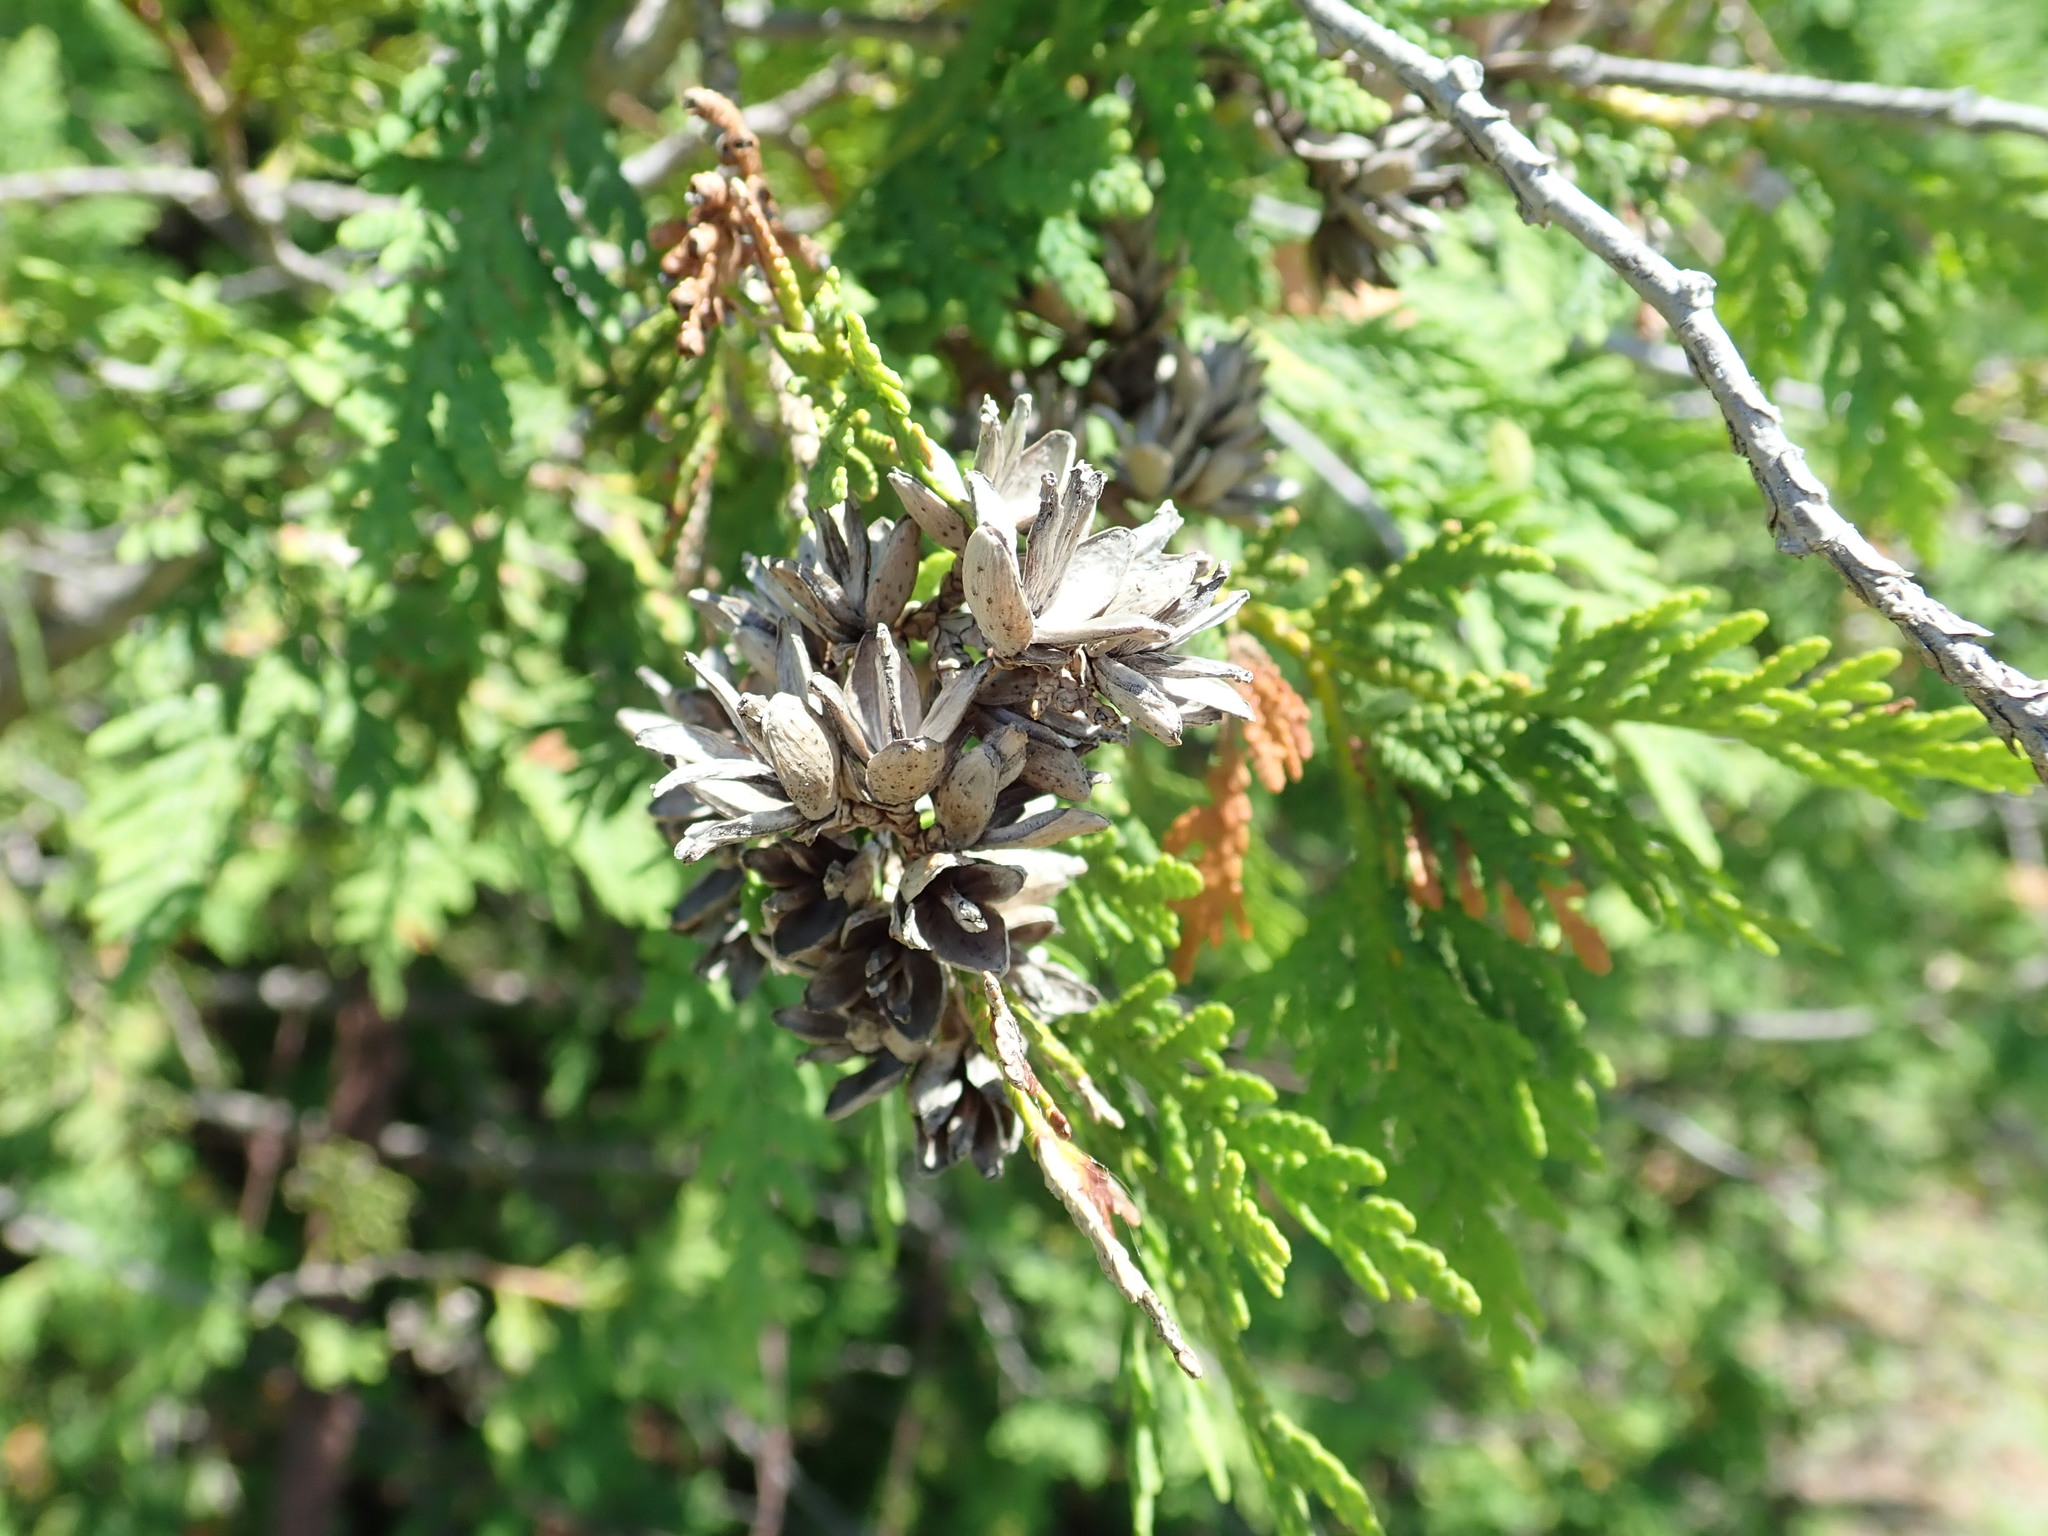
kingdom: Plantae
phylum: Tracheophyta
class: Pinopsida
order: Pinales
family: Cupressaceae
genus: Thuja
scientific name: Thuja occidentalis
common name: Northern white-cedar
